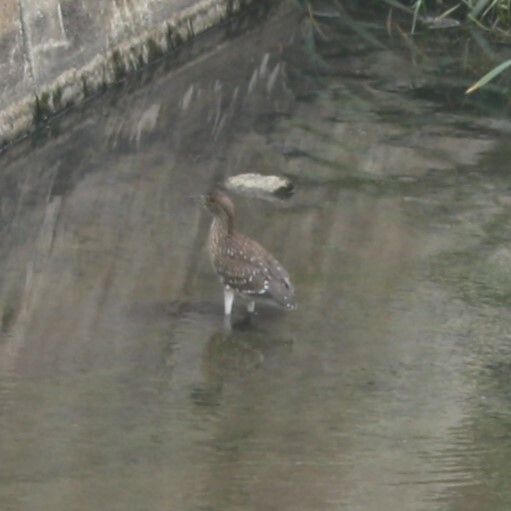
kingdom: Animalia
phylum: Chordata
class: Aves
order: Pelecaniformes
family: Ardeidae
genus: Nycticorax
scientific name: Nycticorax nycticorax
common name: Black-crowned night heron
